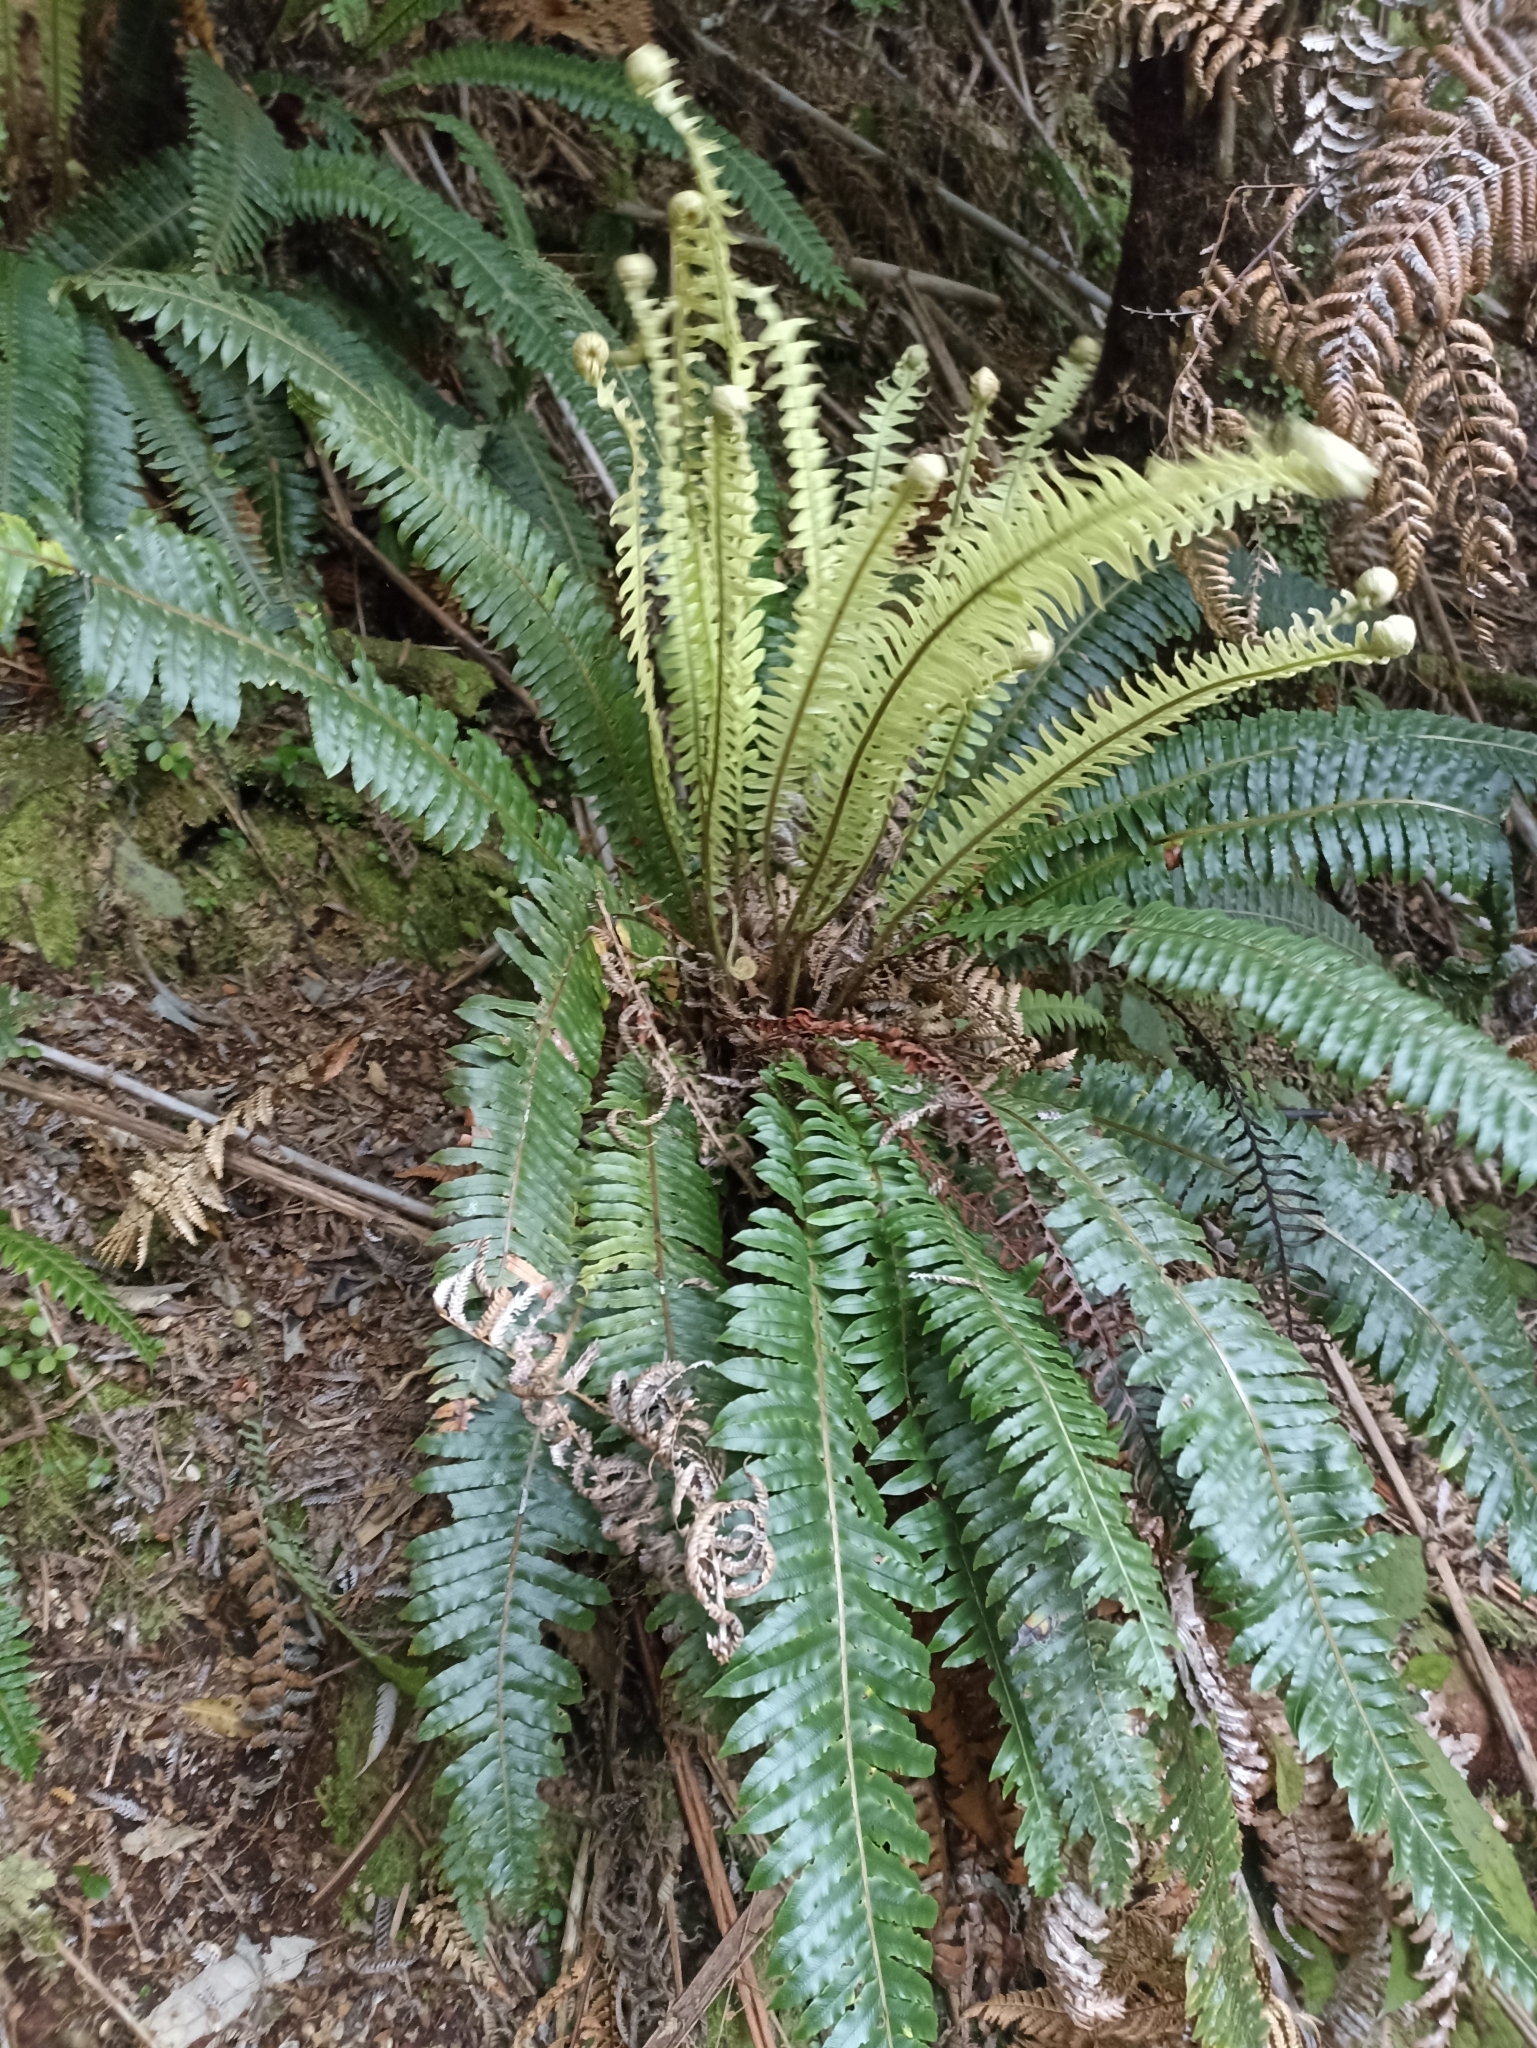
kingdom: Plantae
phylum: Tracheophyta
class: Polypodiopsida
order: Polypodiales
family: Blechnaceae
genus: Lomaria
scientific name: Lomaria discolor
